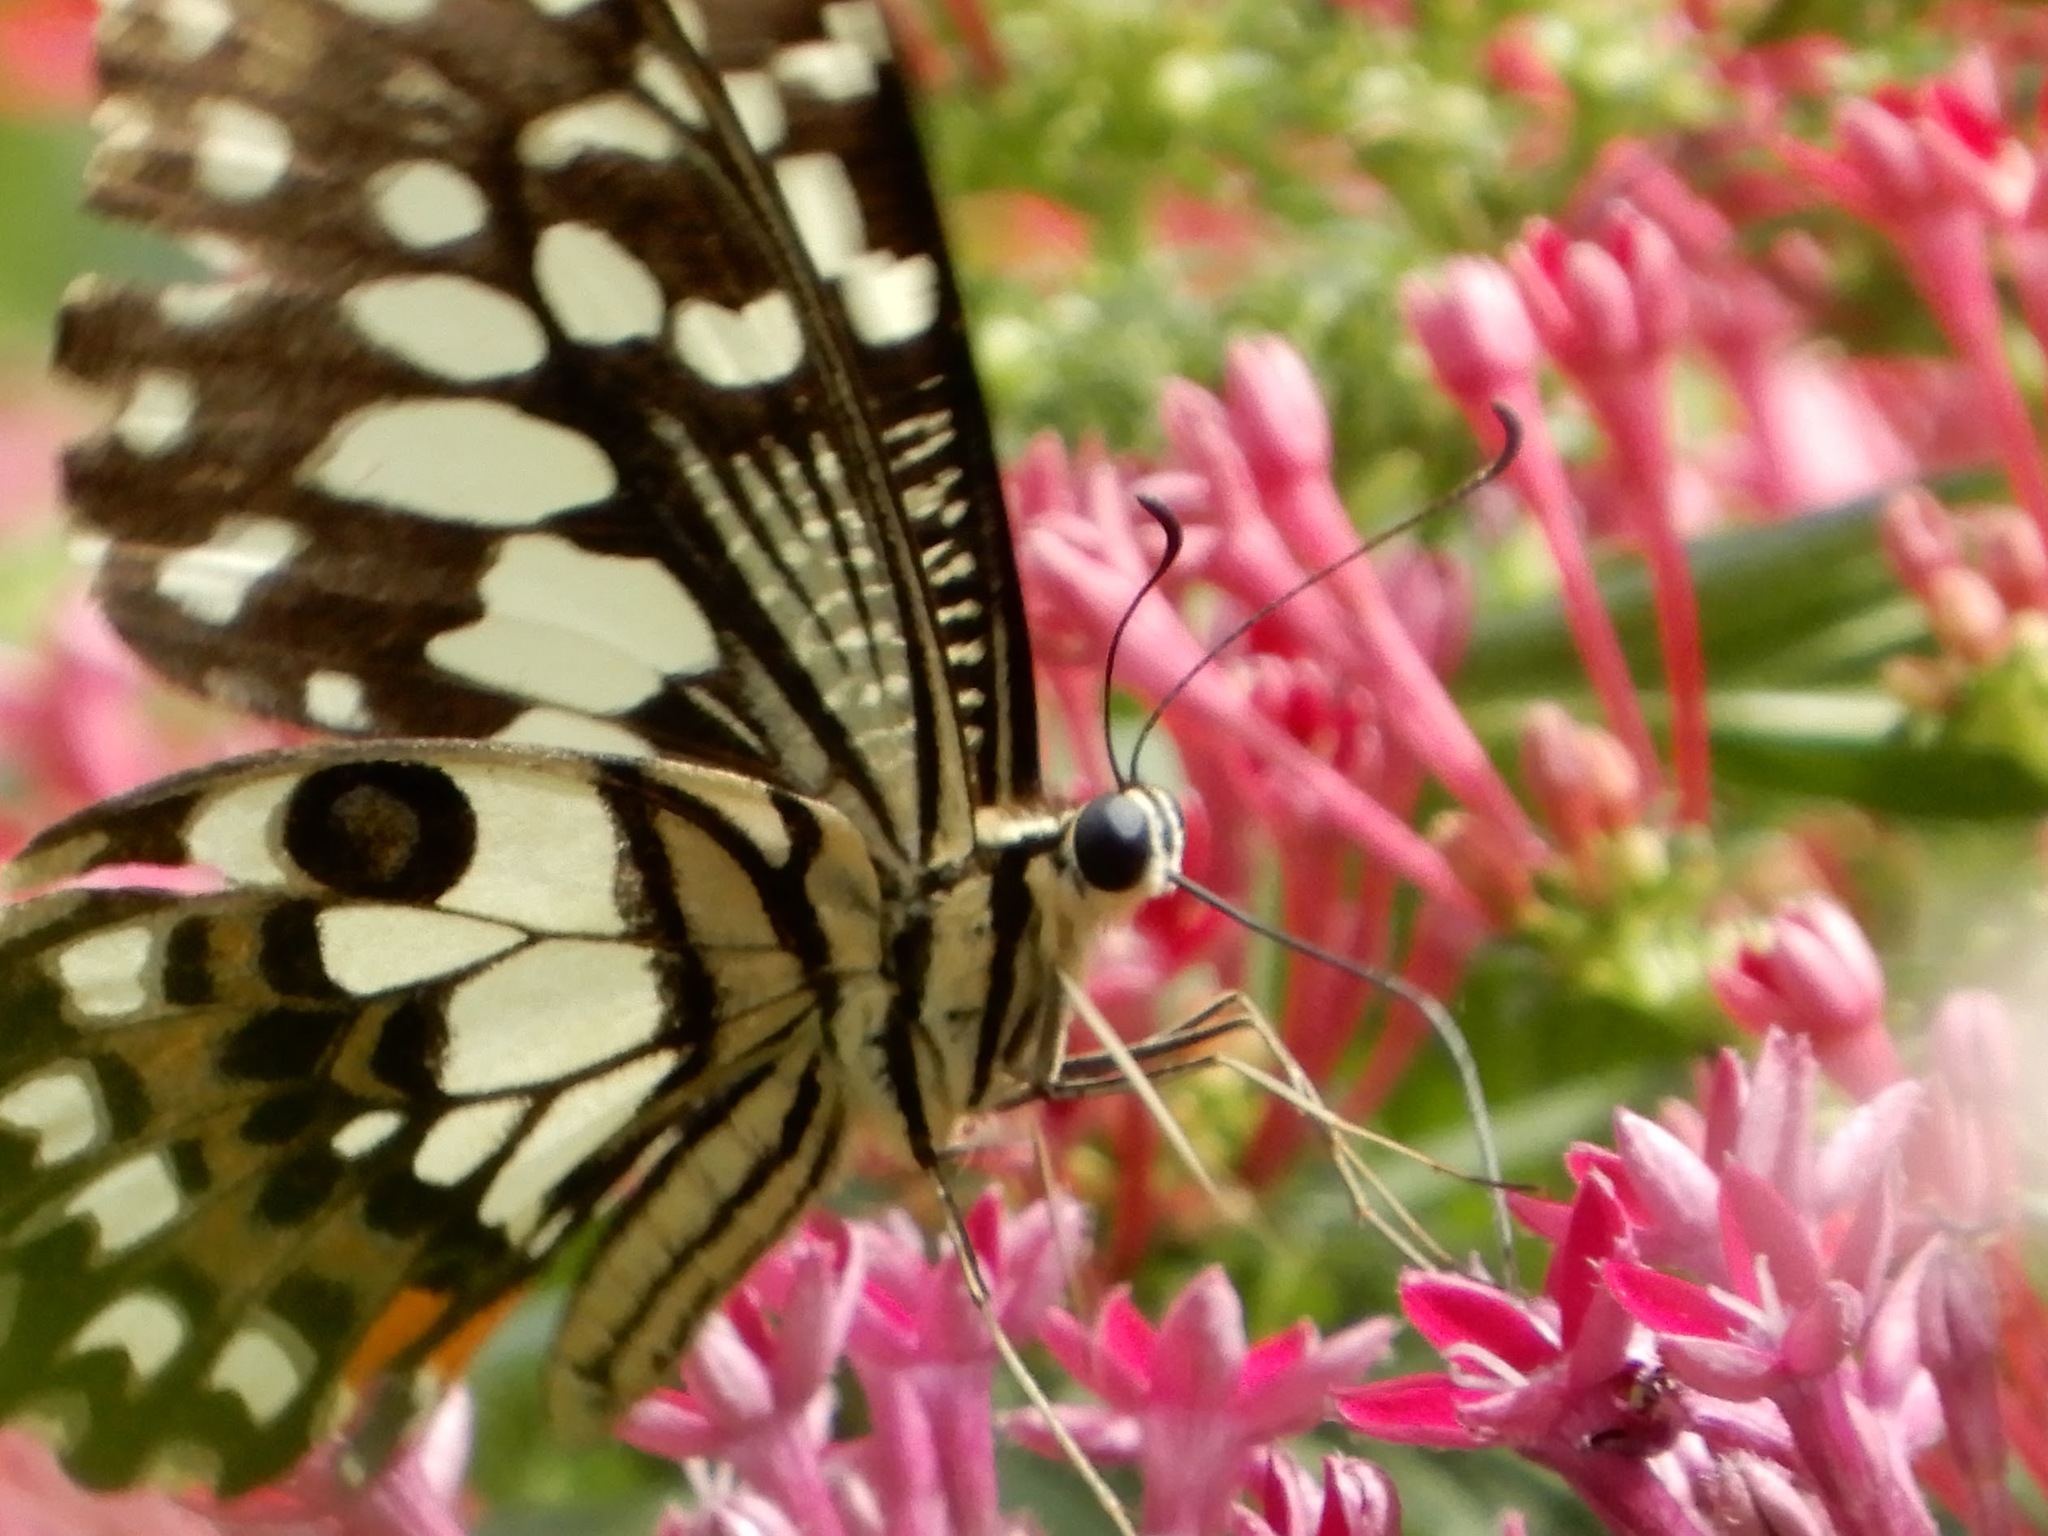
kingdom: Animalia
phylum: Arthropoda
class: Insecta
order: Lepidoptera
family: Papilionidae
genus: Papilio
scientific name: Papilio demoleus
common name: Lime butterfly
